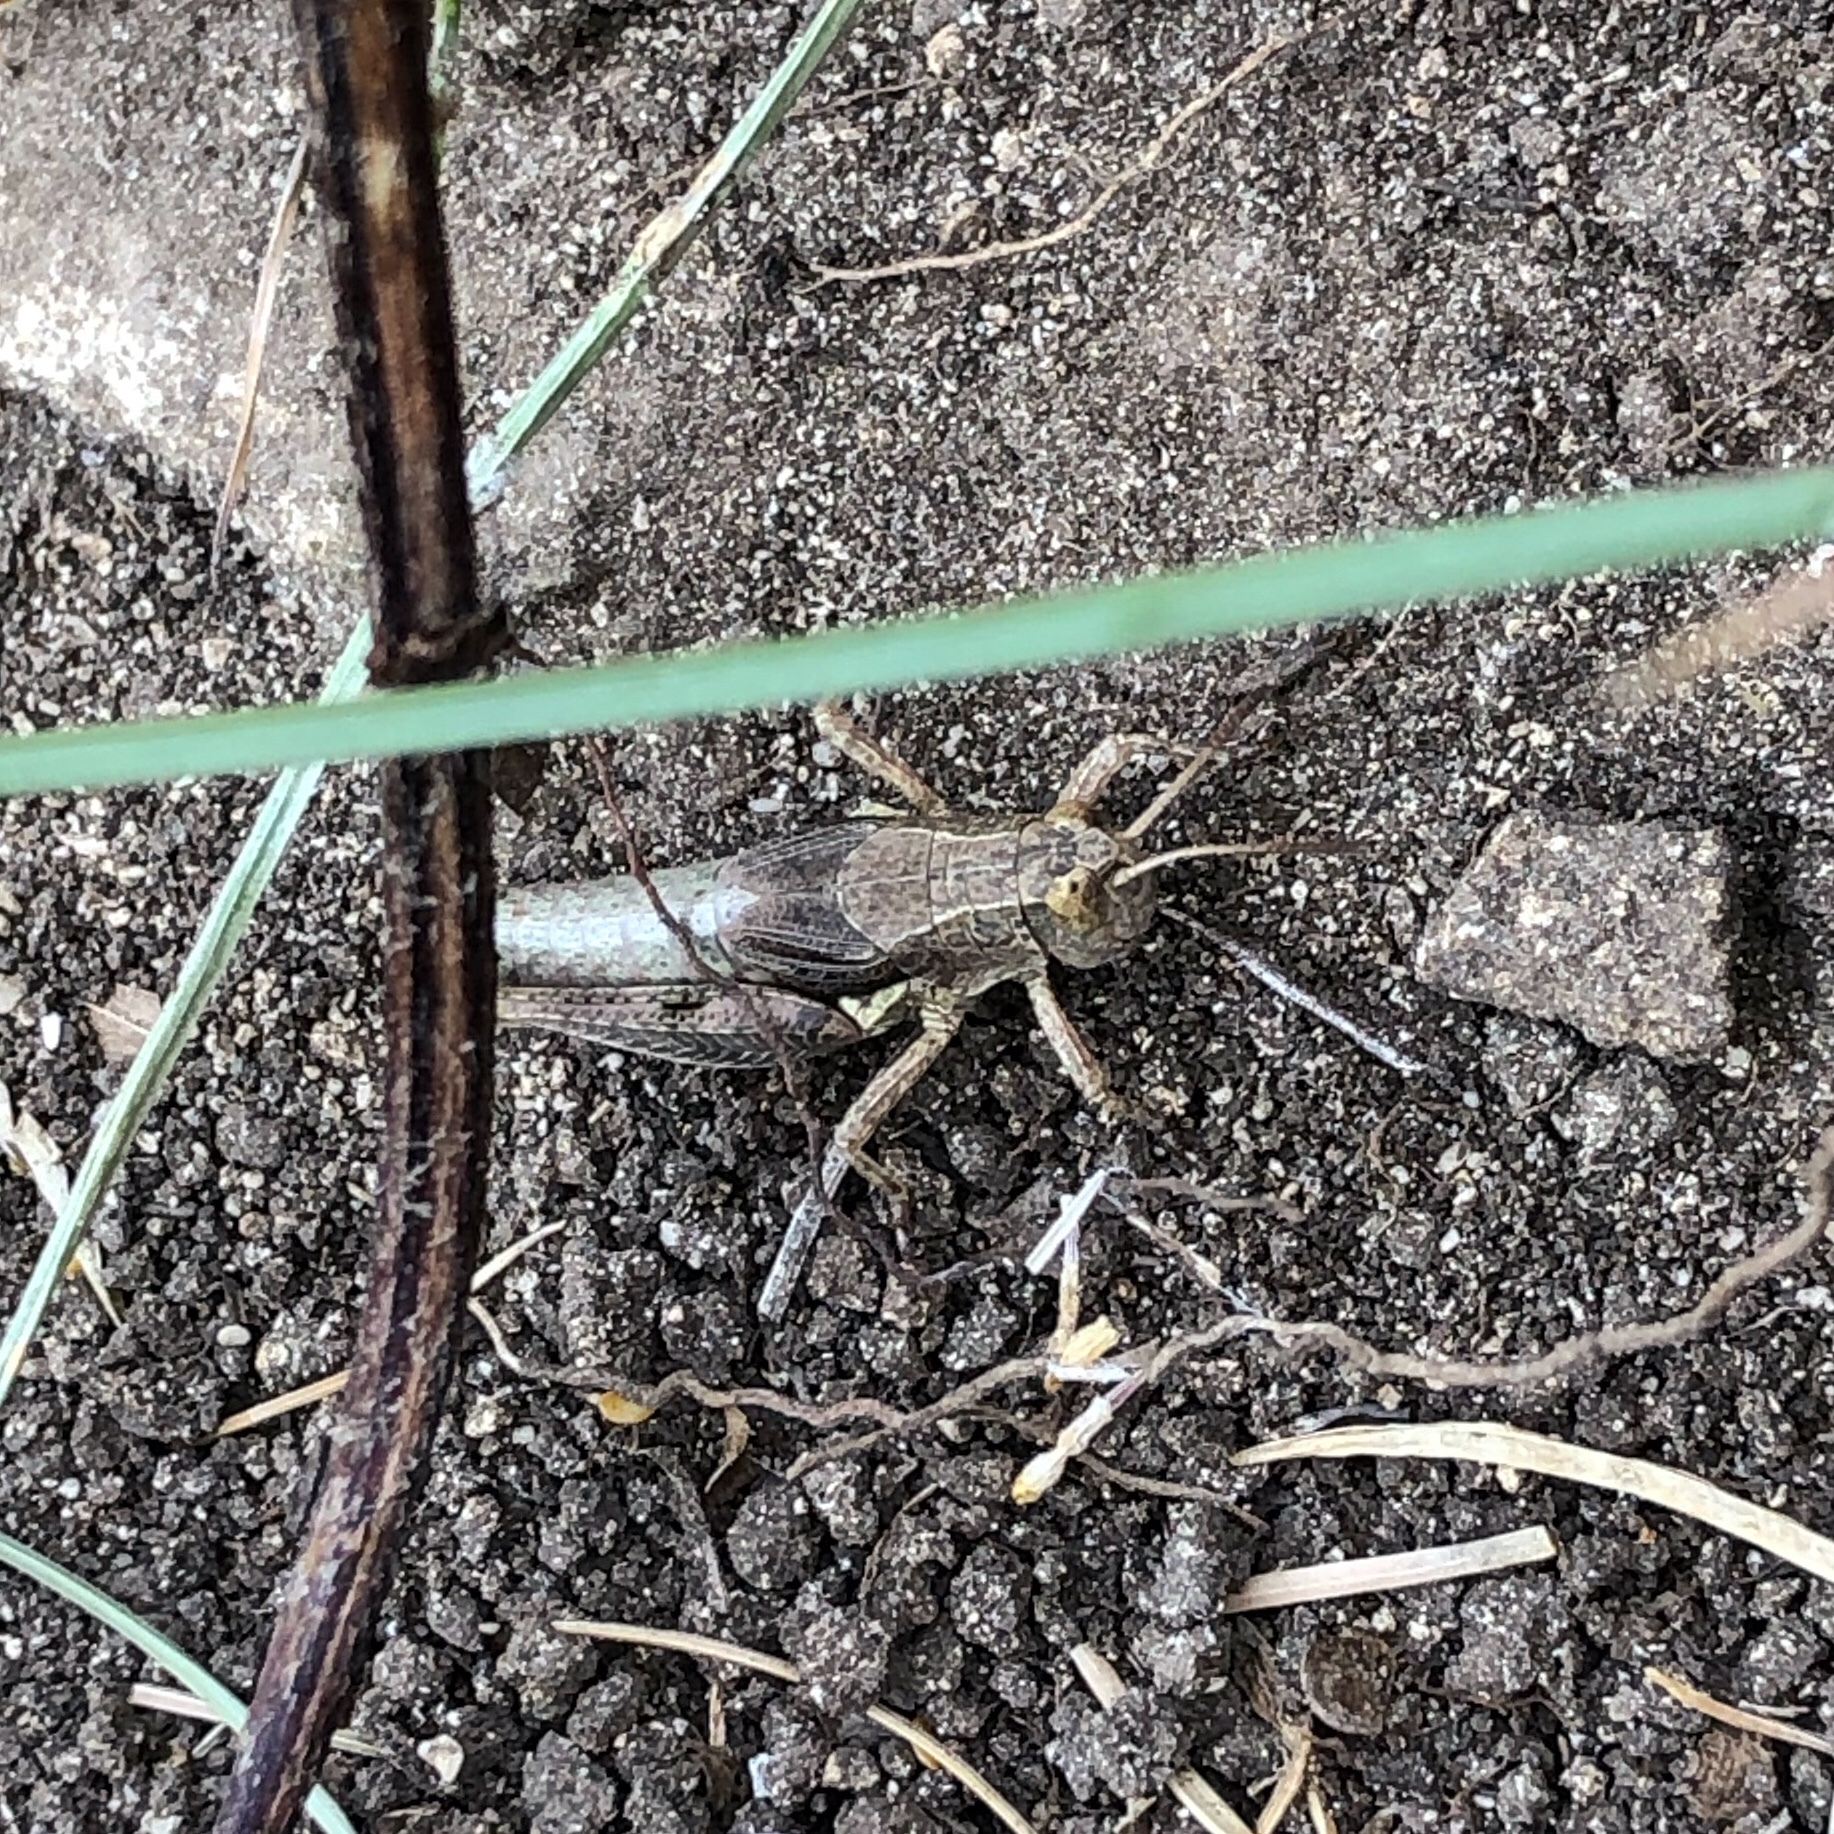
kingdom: Animalia
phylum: Arthropoda
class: Insecta
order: Orthoptera
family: Acrididae
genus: Phaulacridium
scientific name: Phaulacridium marginale
